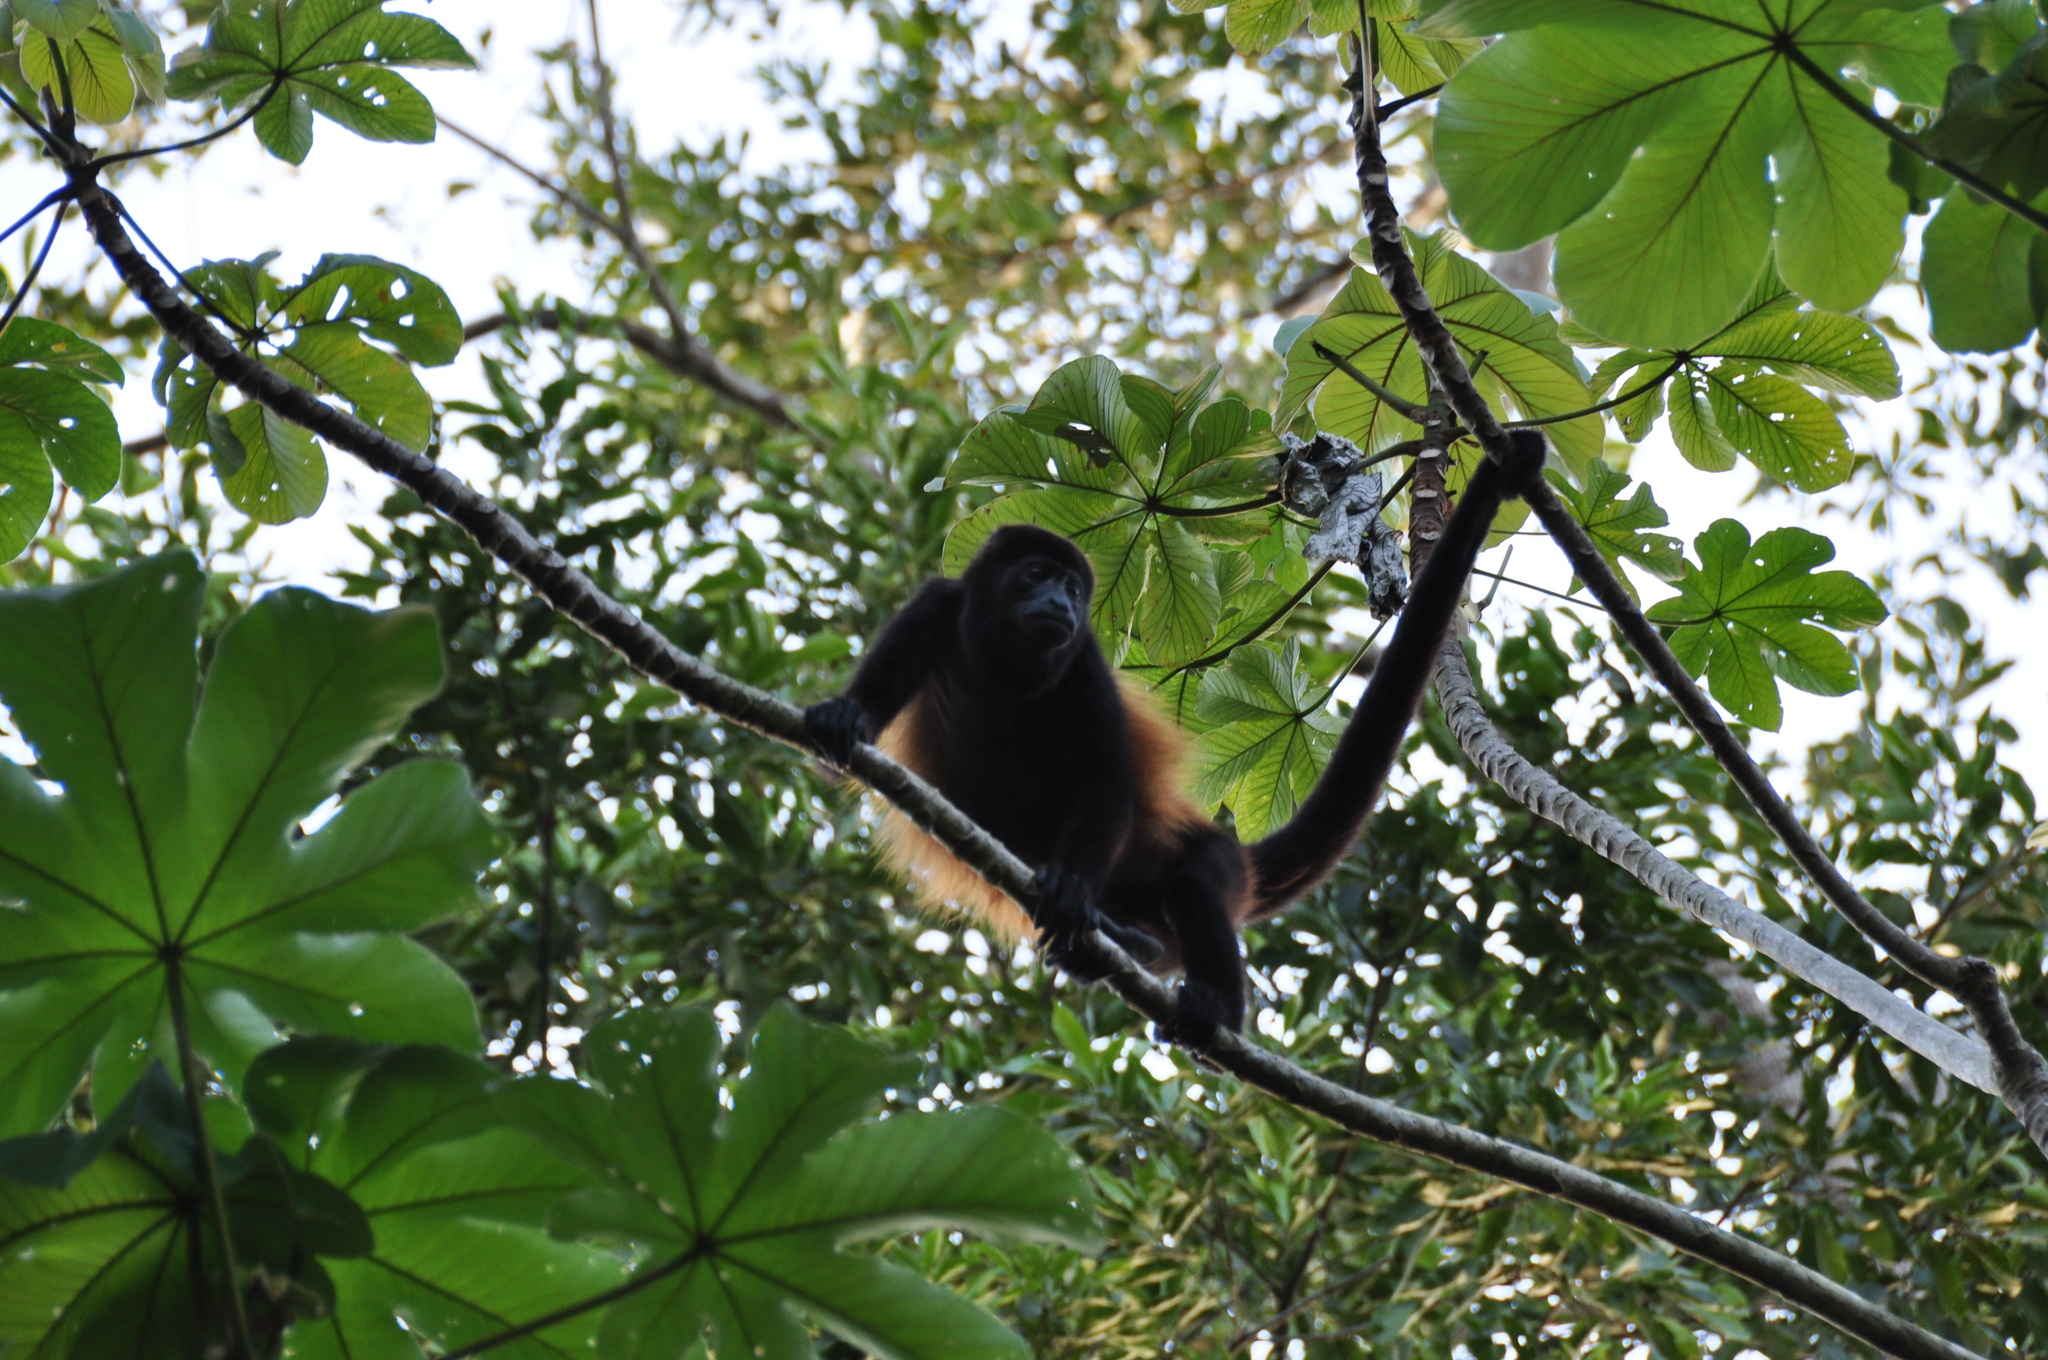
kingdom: Animalia
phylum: Chordata
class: Mammalia
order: Primates
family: Atelidae
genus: Alouatta
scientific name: Alouatta palliata
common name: Mantled howler
